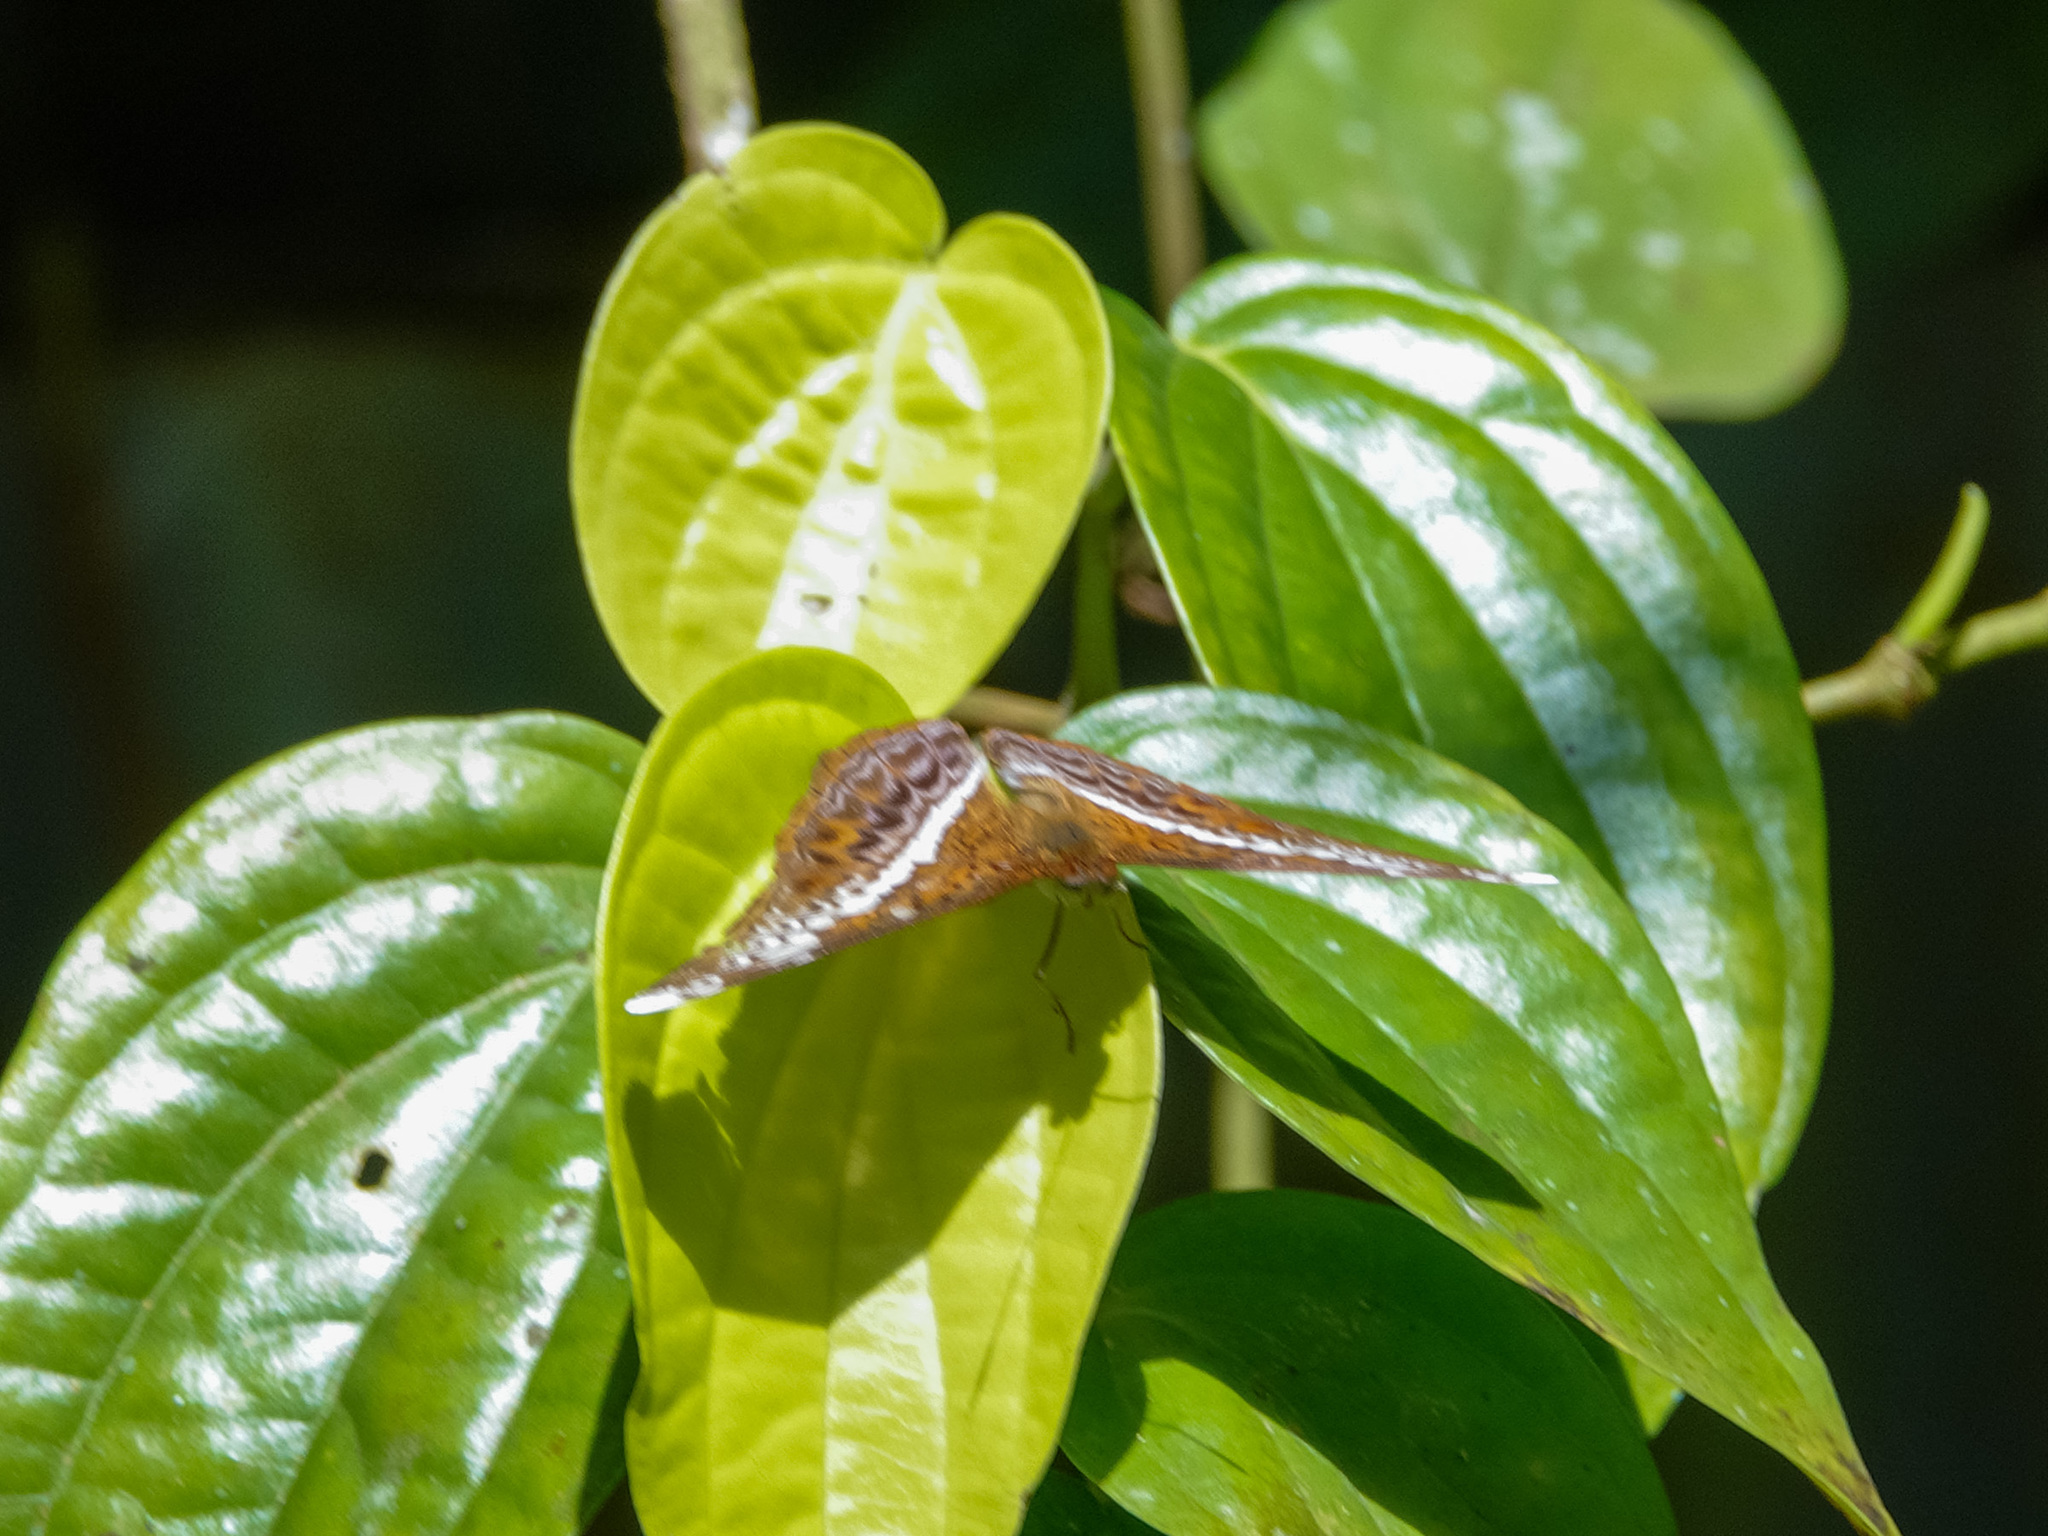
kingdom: Animalia
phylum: Arthropoda
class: Insecta
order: Lepidoptera
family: Nymphalidae
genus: Lebadea
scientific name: Lebadea martha
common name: Knight
